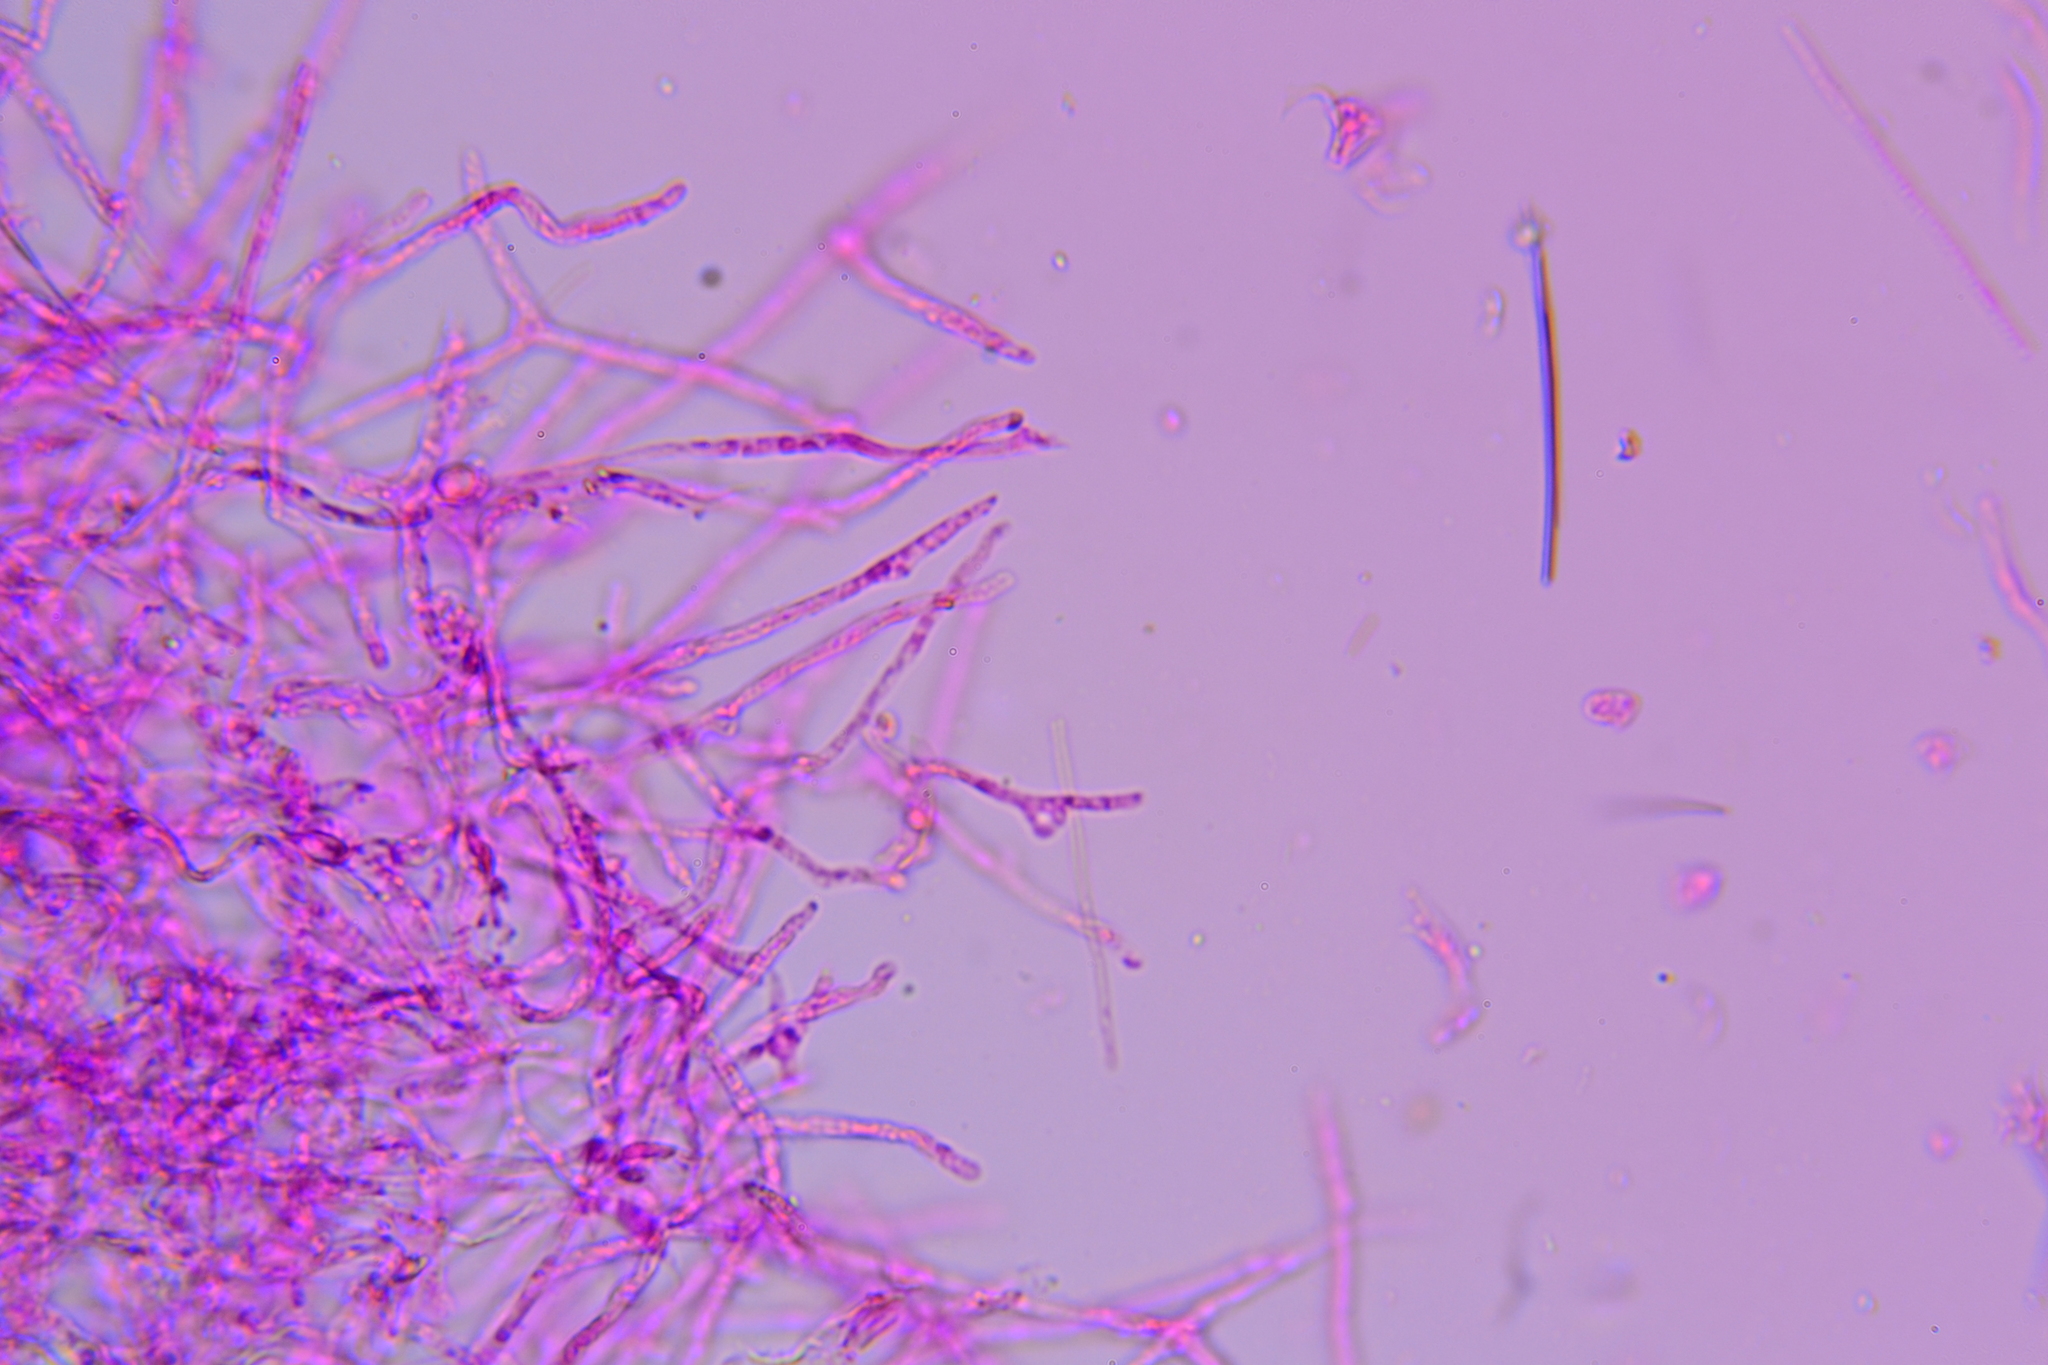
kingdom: Fungi
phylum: Basidiomycota
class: Agaricomycetes
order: Agaricales
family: Hygrophoraceae
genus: Gliophorus
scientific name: Gliophorus laetus
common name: Heath waxcap
